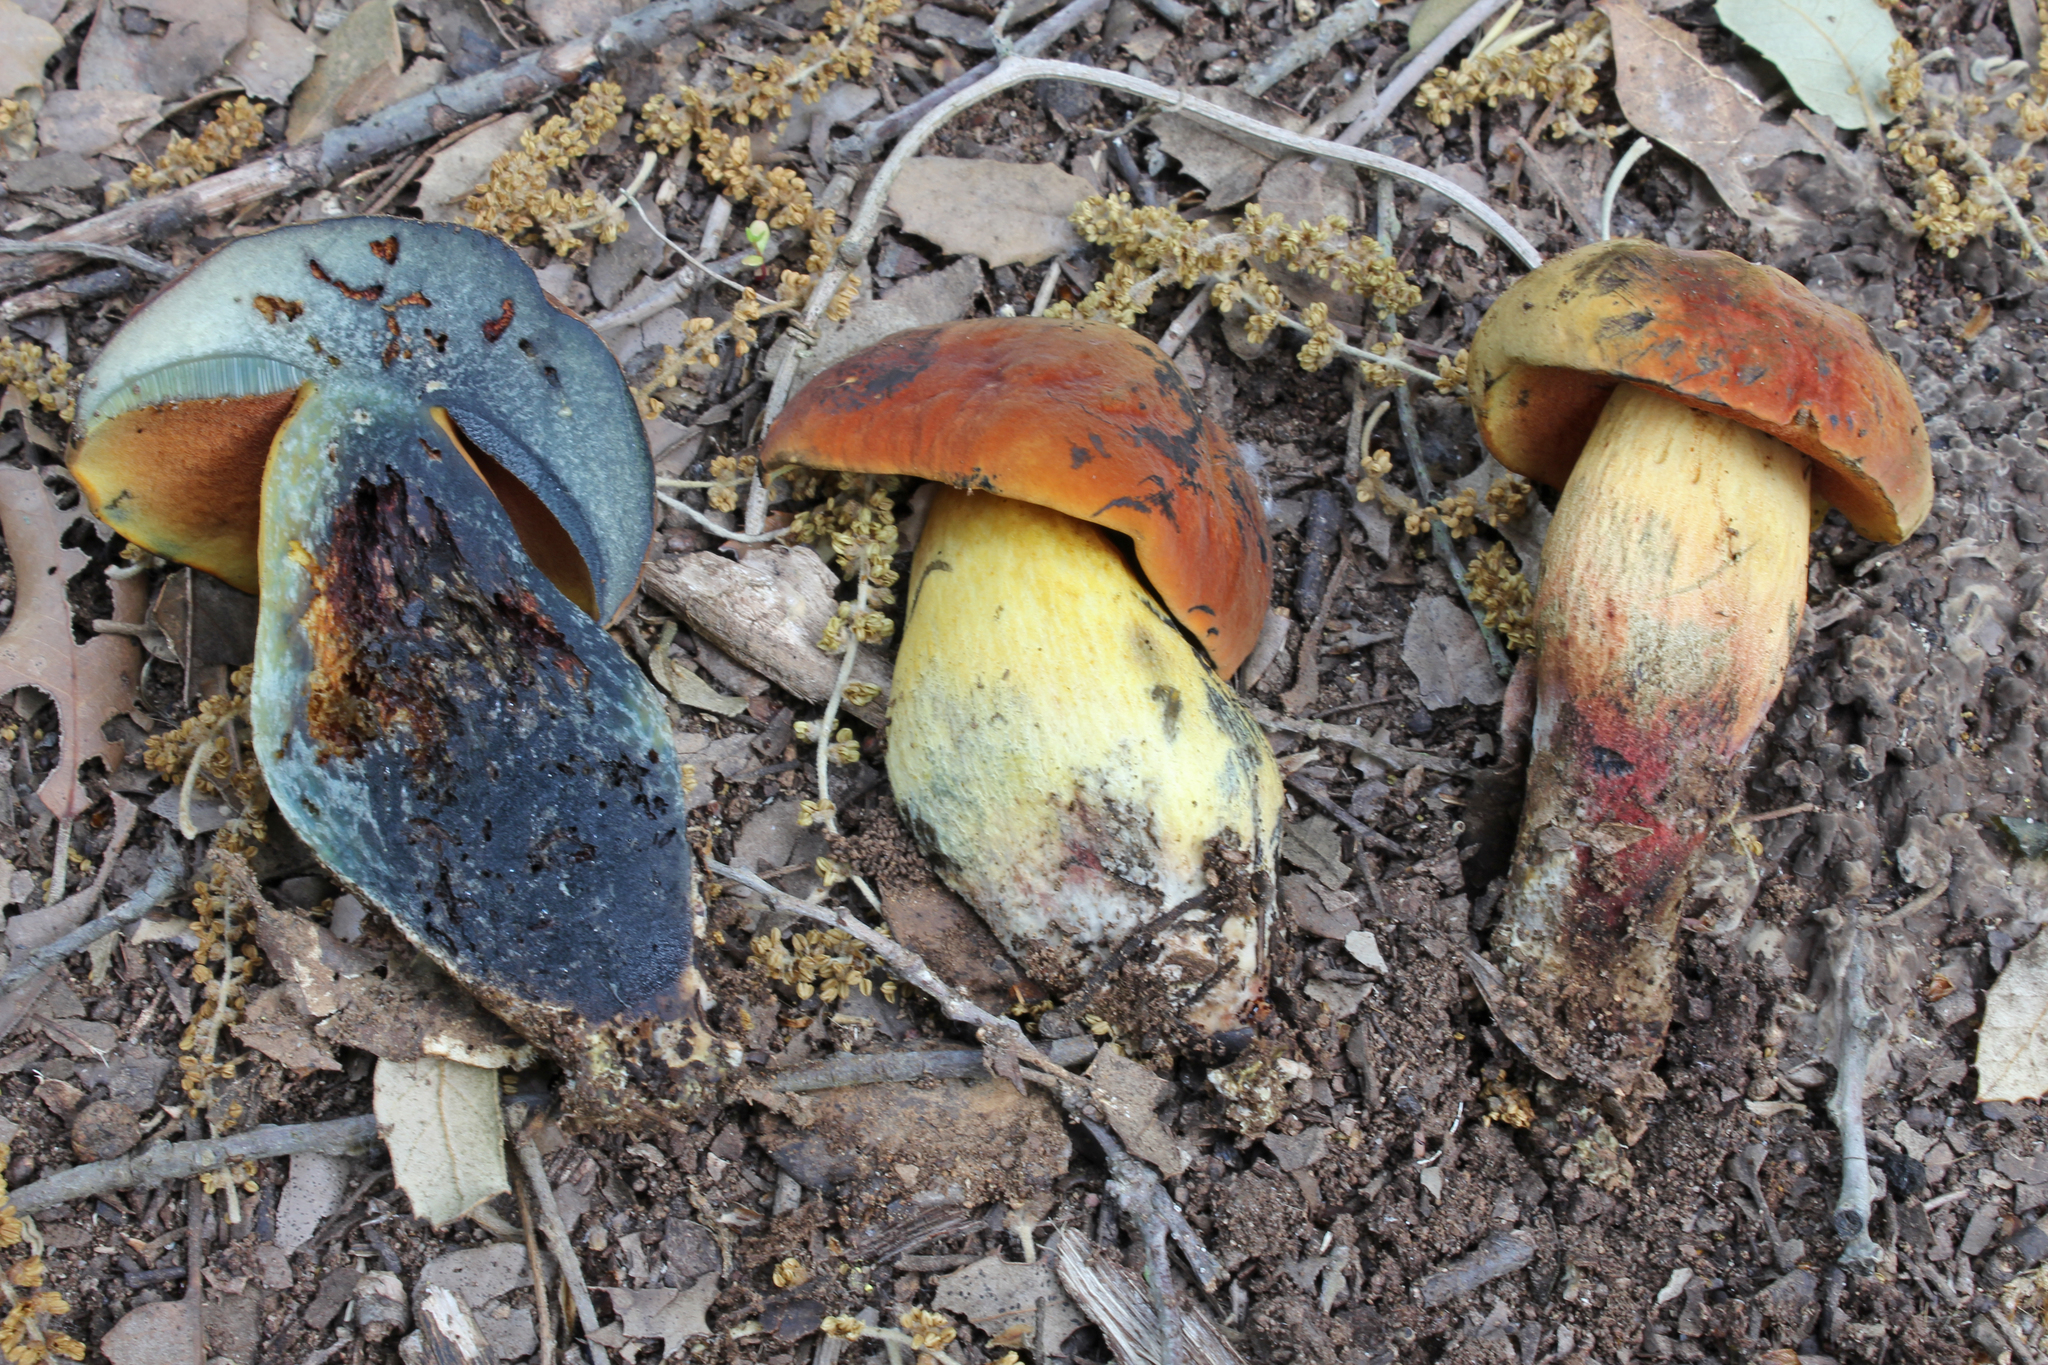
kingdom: Fungi
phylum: Basidiomycota
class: Agaricomycetes
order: Boletales
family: Boletaceae
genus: Suillellus
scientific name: Suillellus queletii
